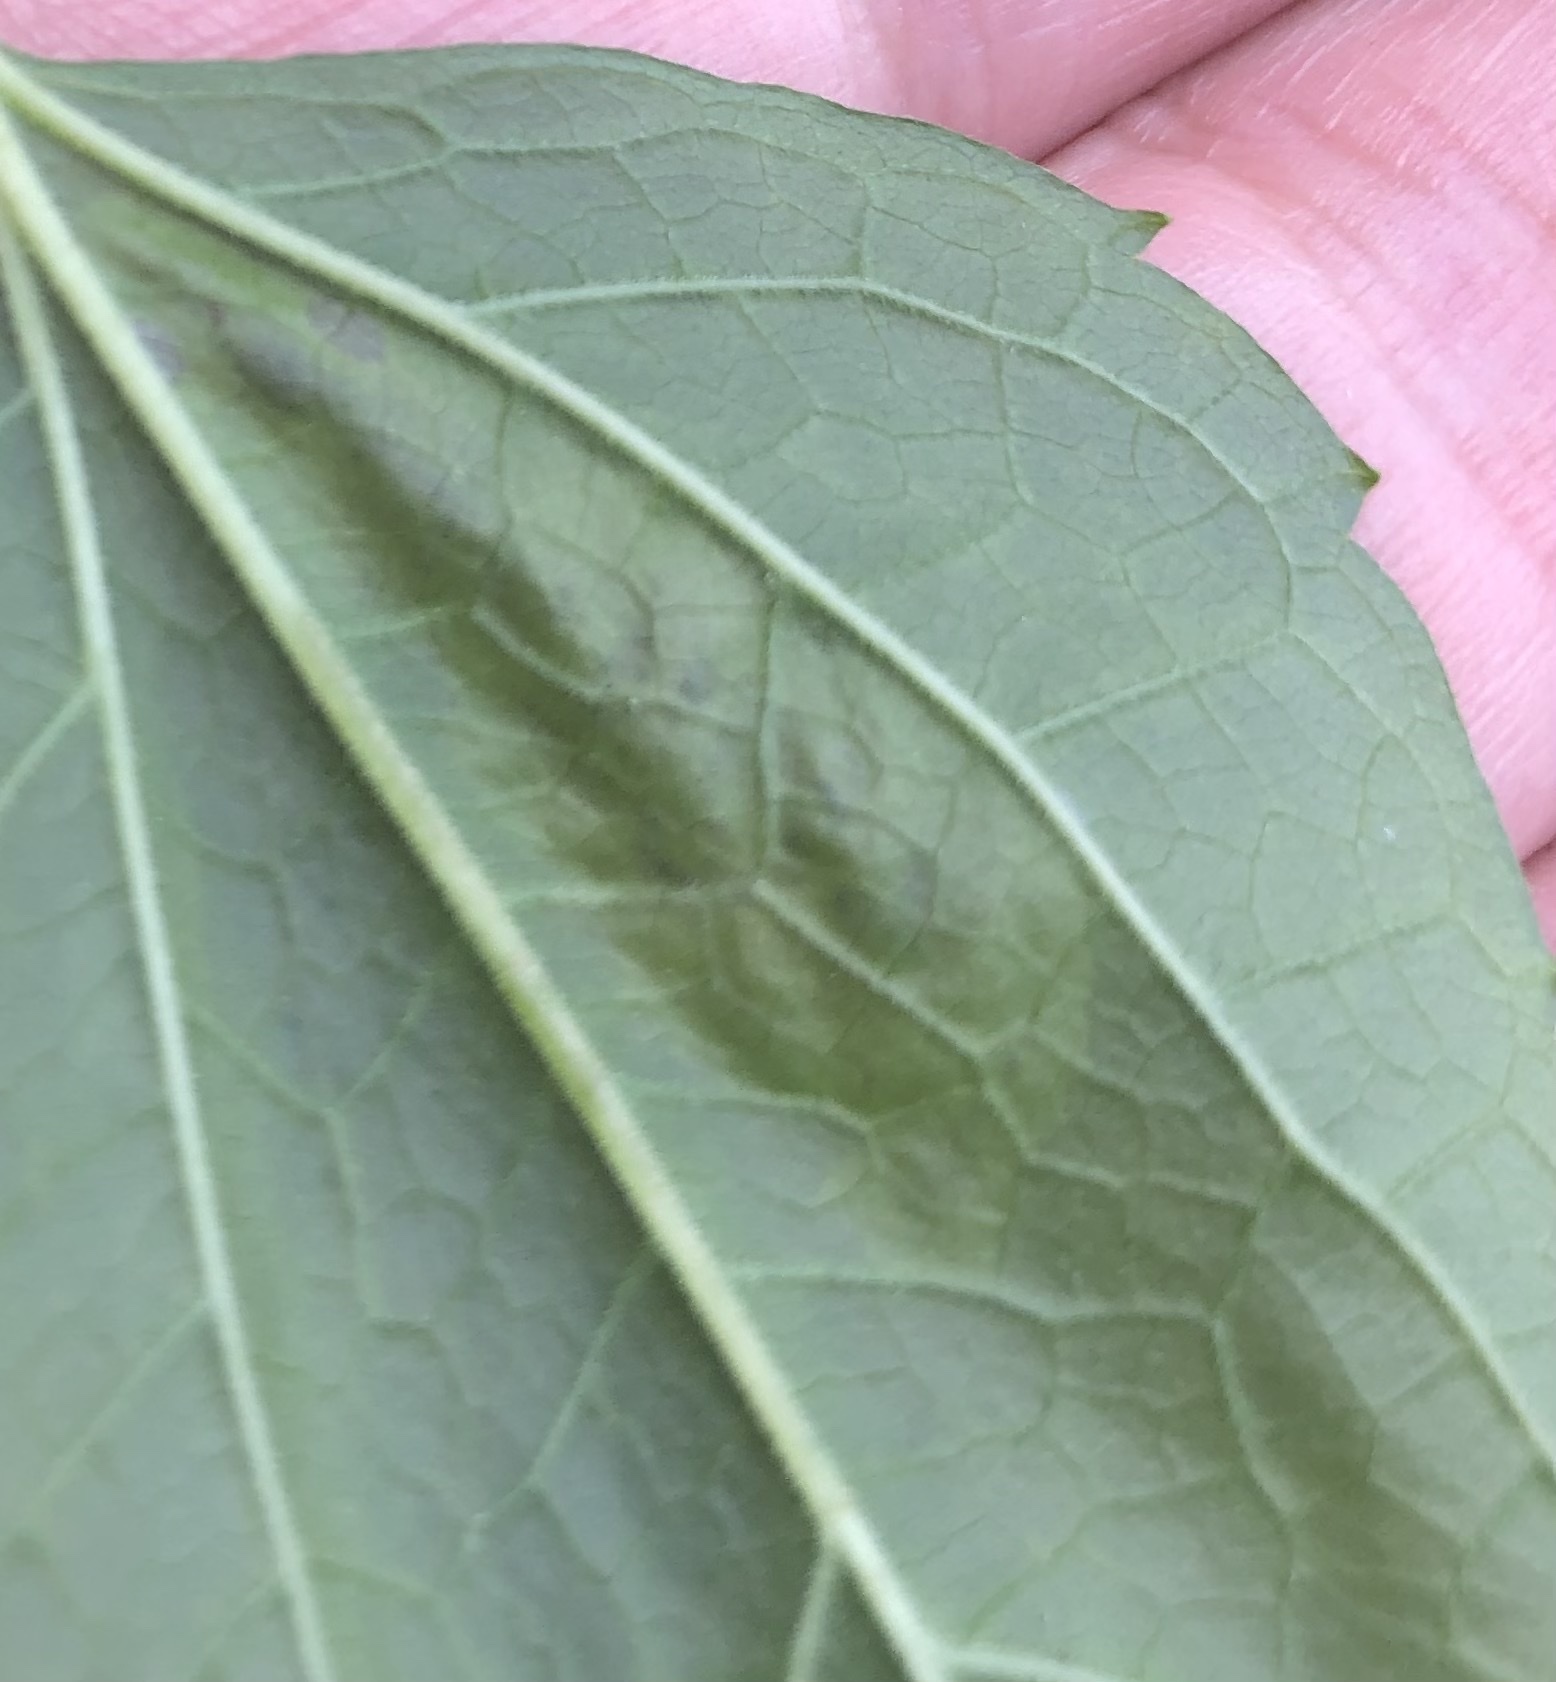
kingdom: Animalia
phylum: Arthropoda
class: Insecta
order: Diptera
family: Agromyzidae
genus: Calycomyza
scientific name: Calycomyza eupatoriphaga
